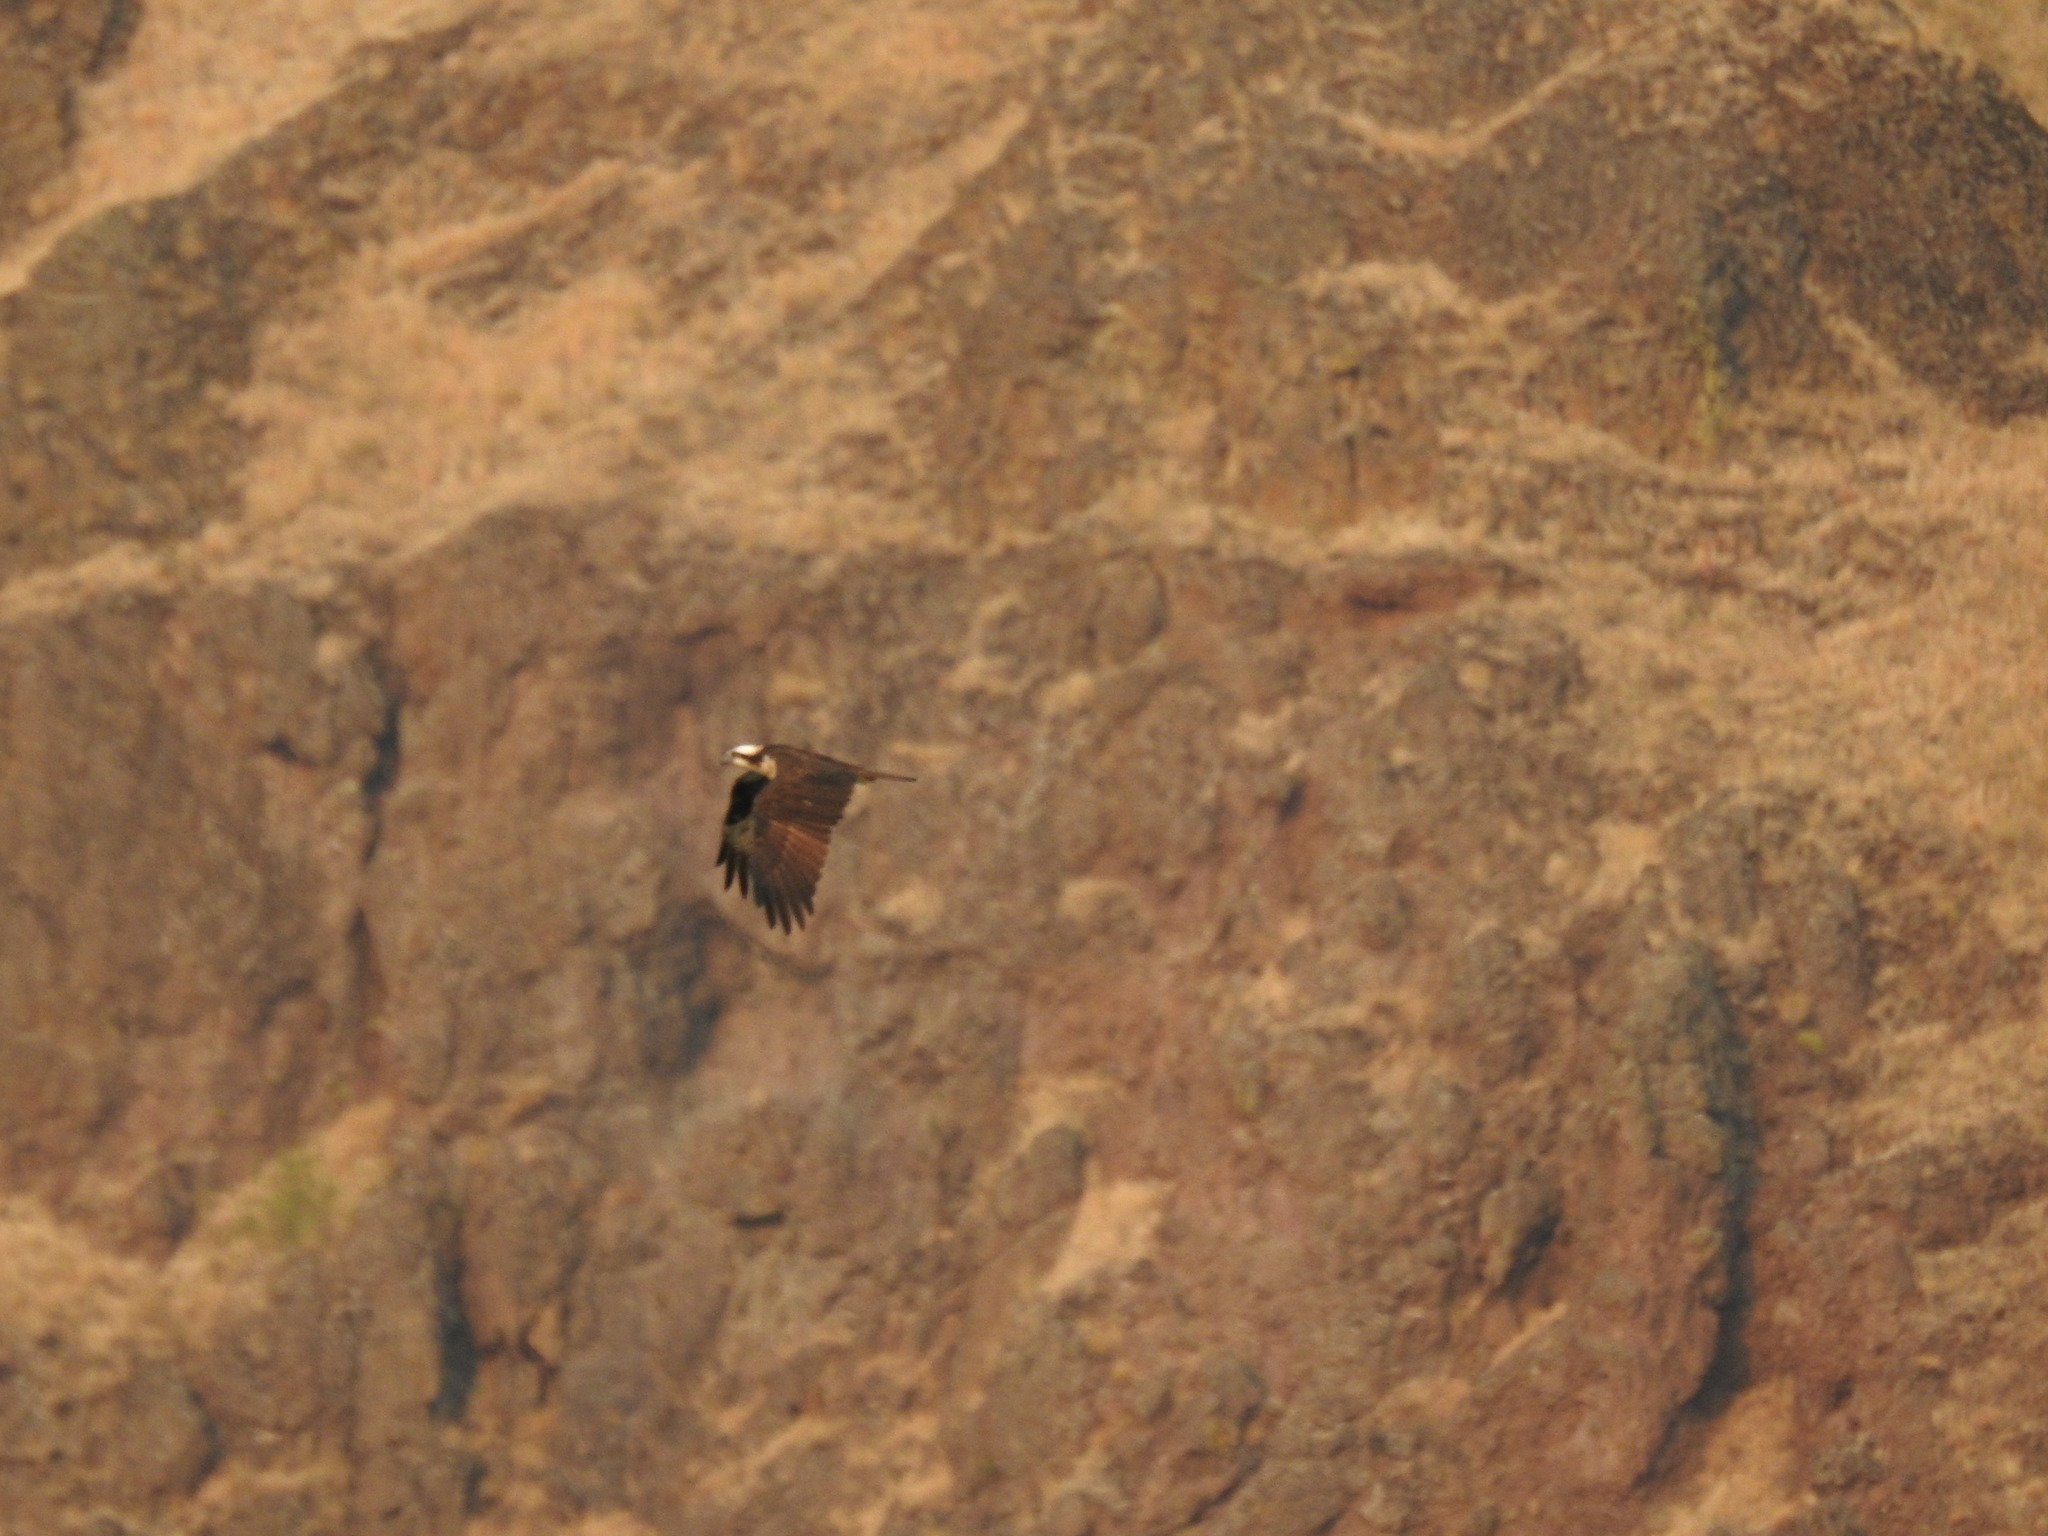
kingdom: Animalia
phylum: Chordata
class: Aves
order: Accipitriformes
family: Pandionidae
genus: Pandion
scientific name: Pandion haliaetus
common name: Osprey
